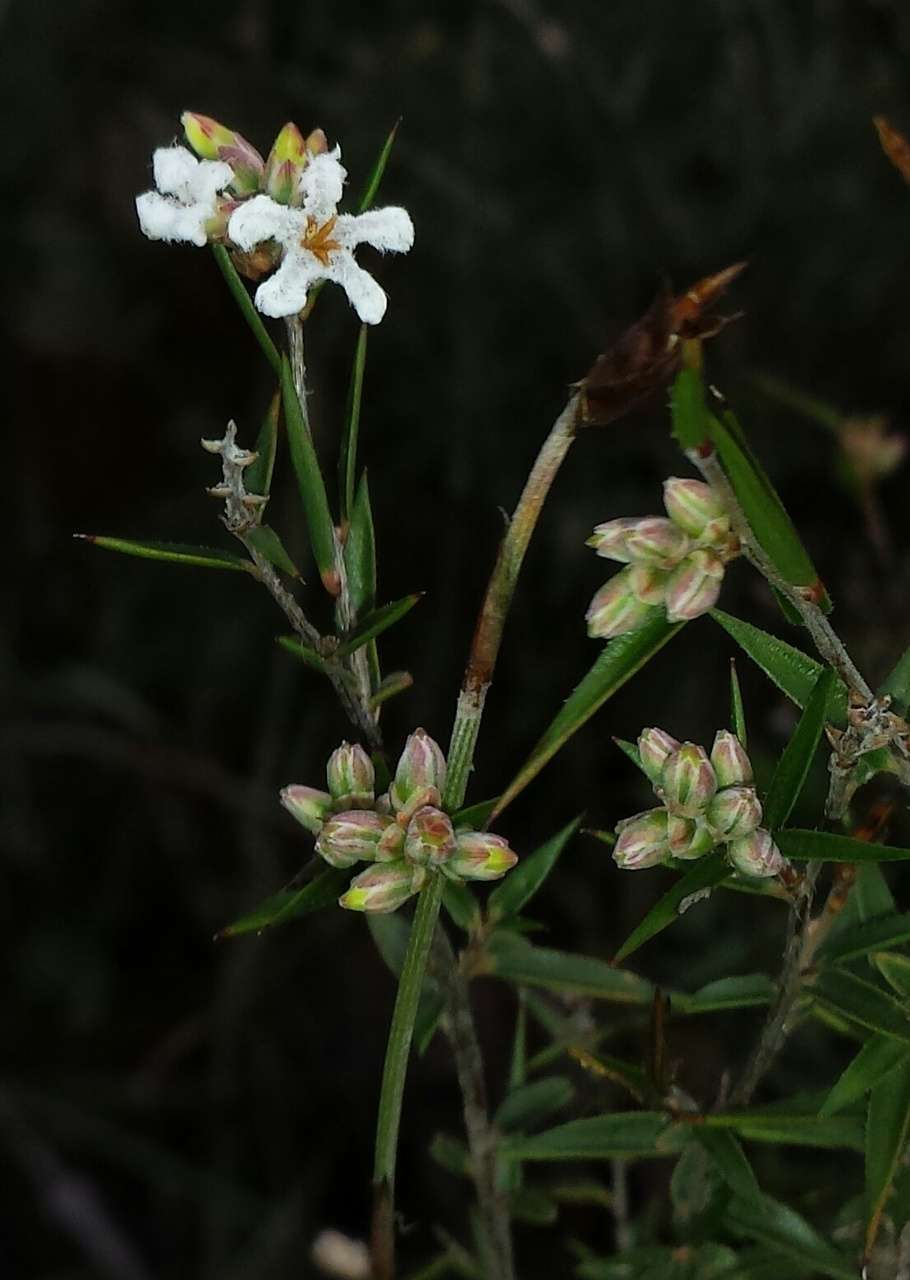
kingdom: Plantae
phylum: Tracheophyta
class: Magnoliopsida
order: Ericales
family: Ericaceae
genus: Leucopogon
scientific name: Leucopogon virgatus
